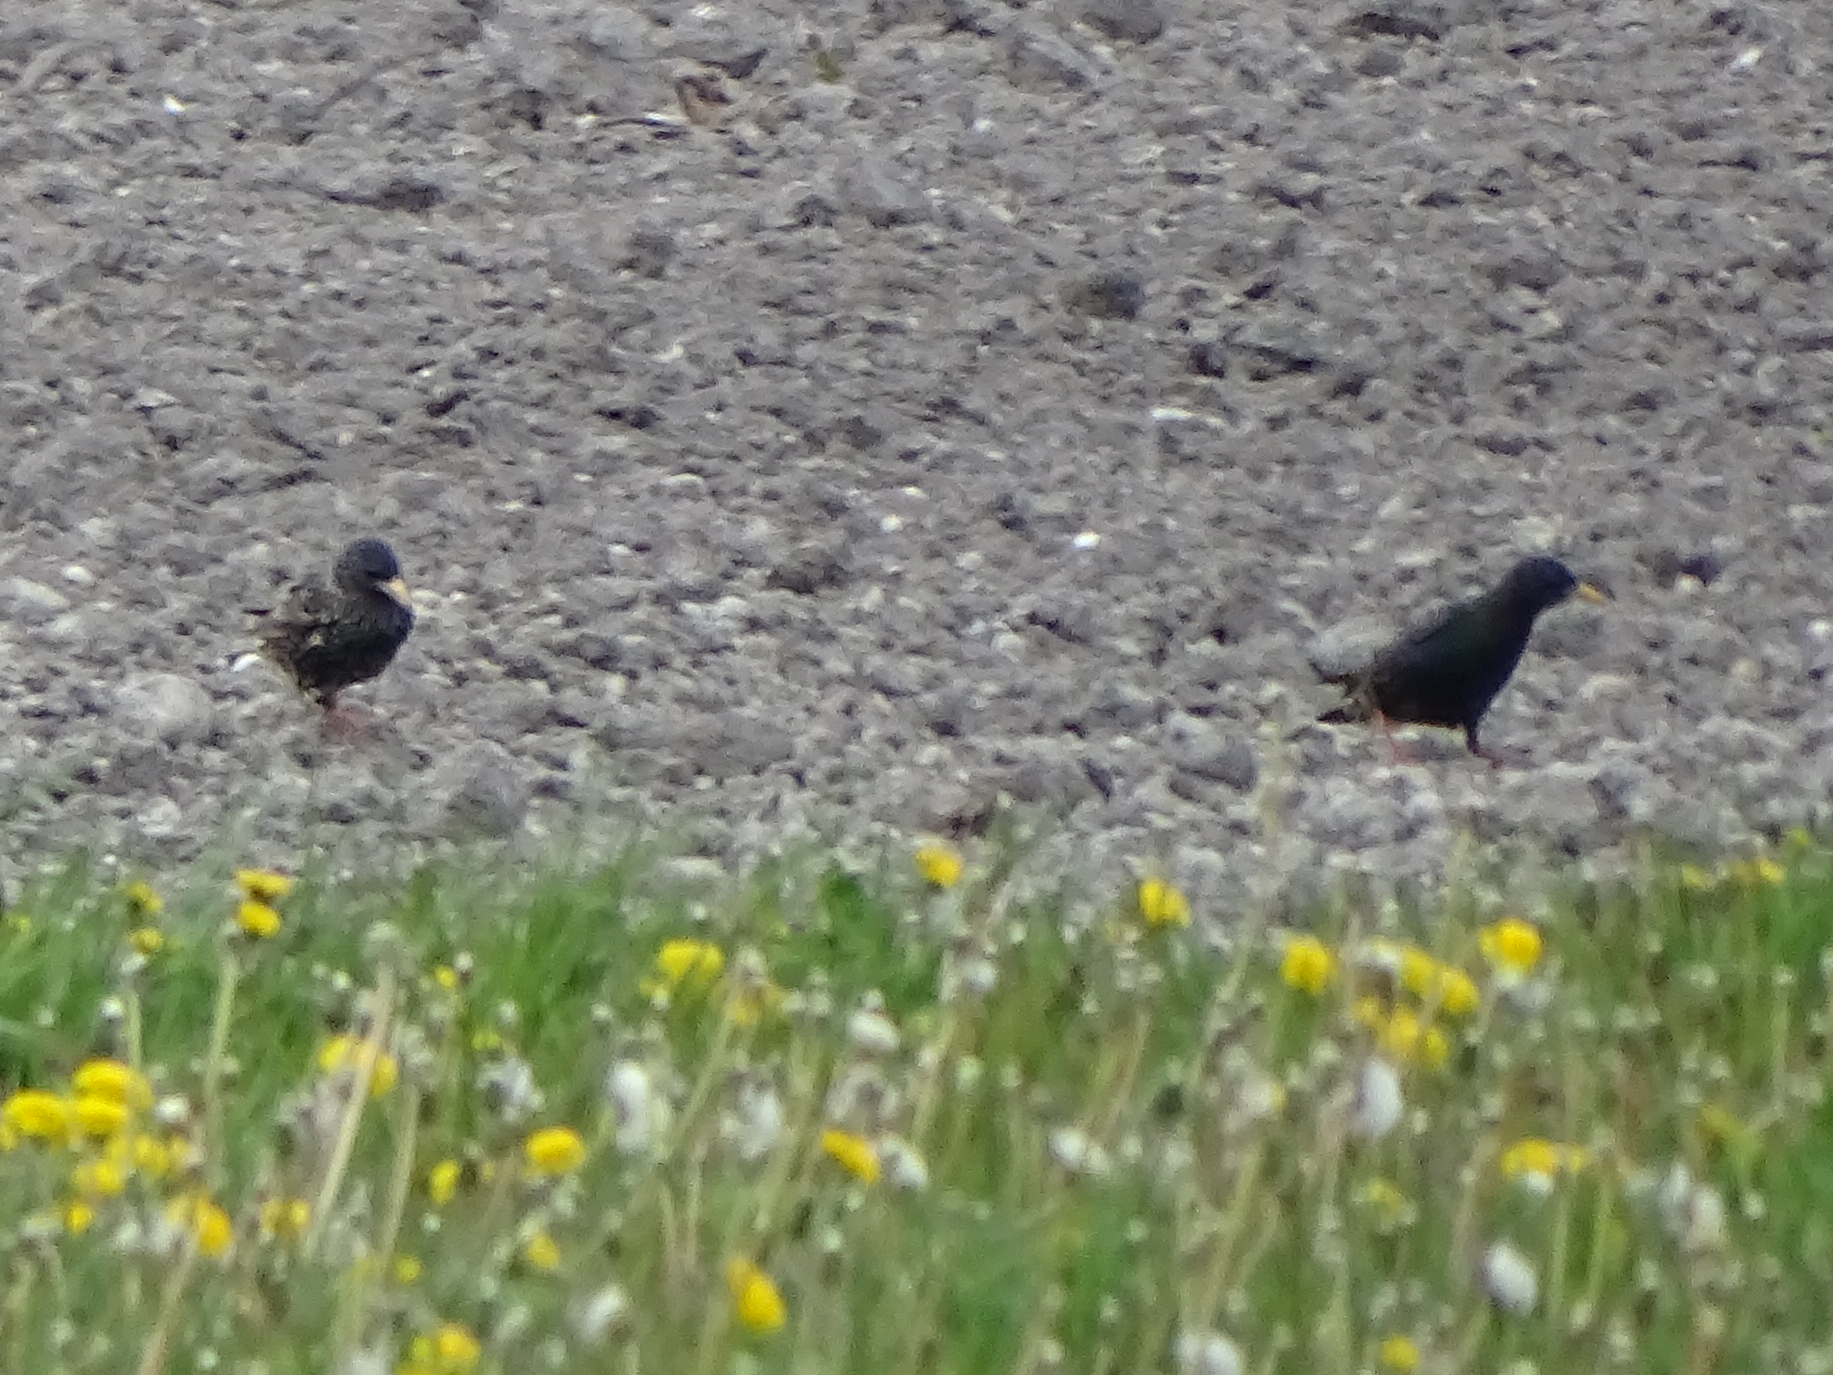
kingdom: Animalia
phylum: Chordata
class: Aves
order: Passeriformes
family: Sturnidae
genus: Sturnus
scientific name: Sturnus vulgaris
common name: Common starling
